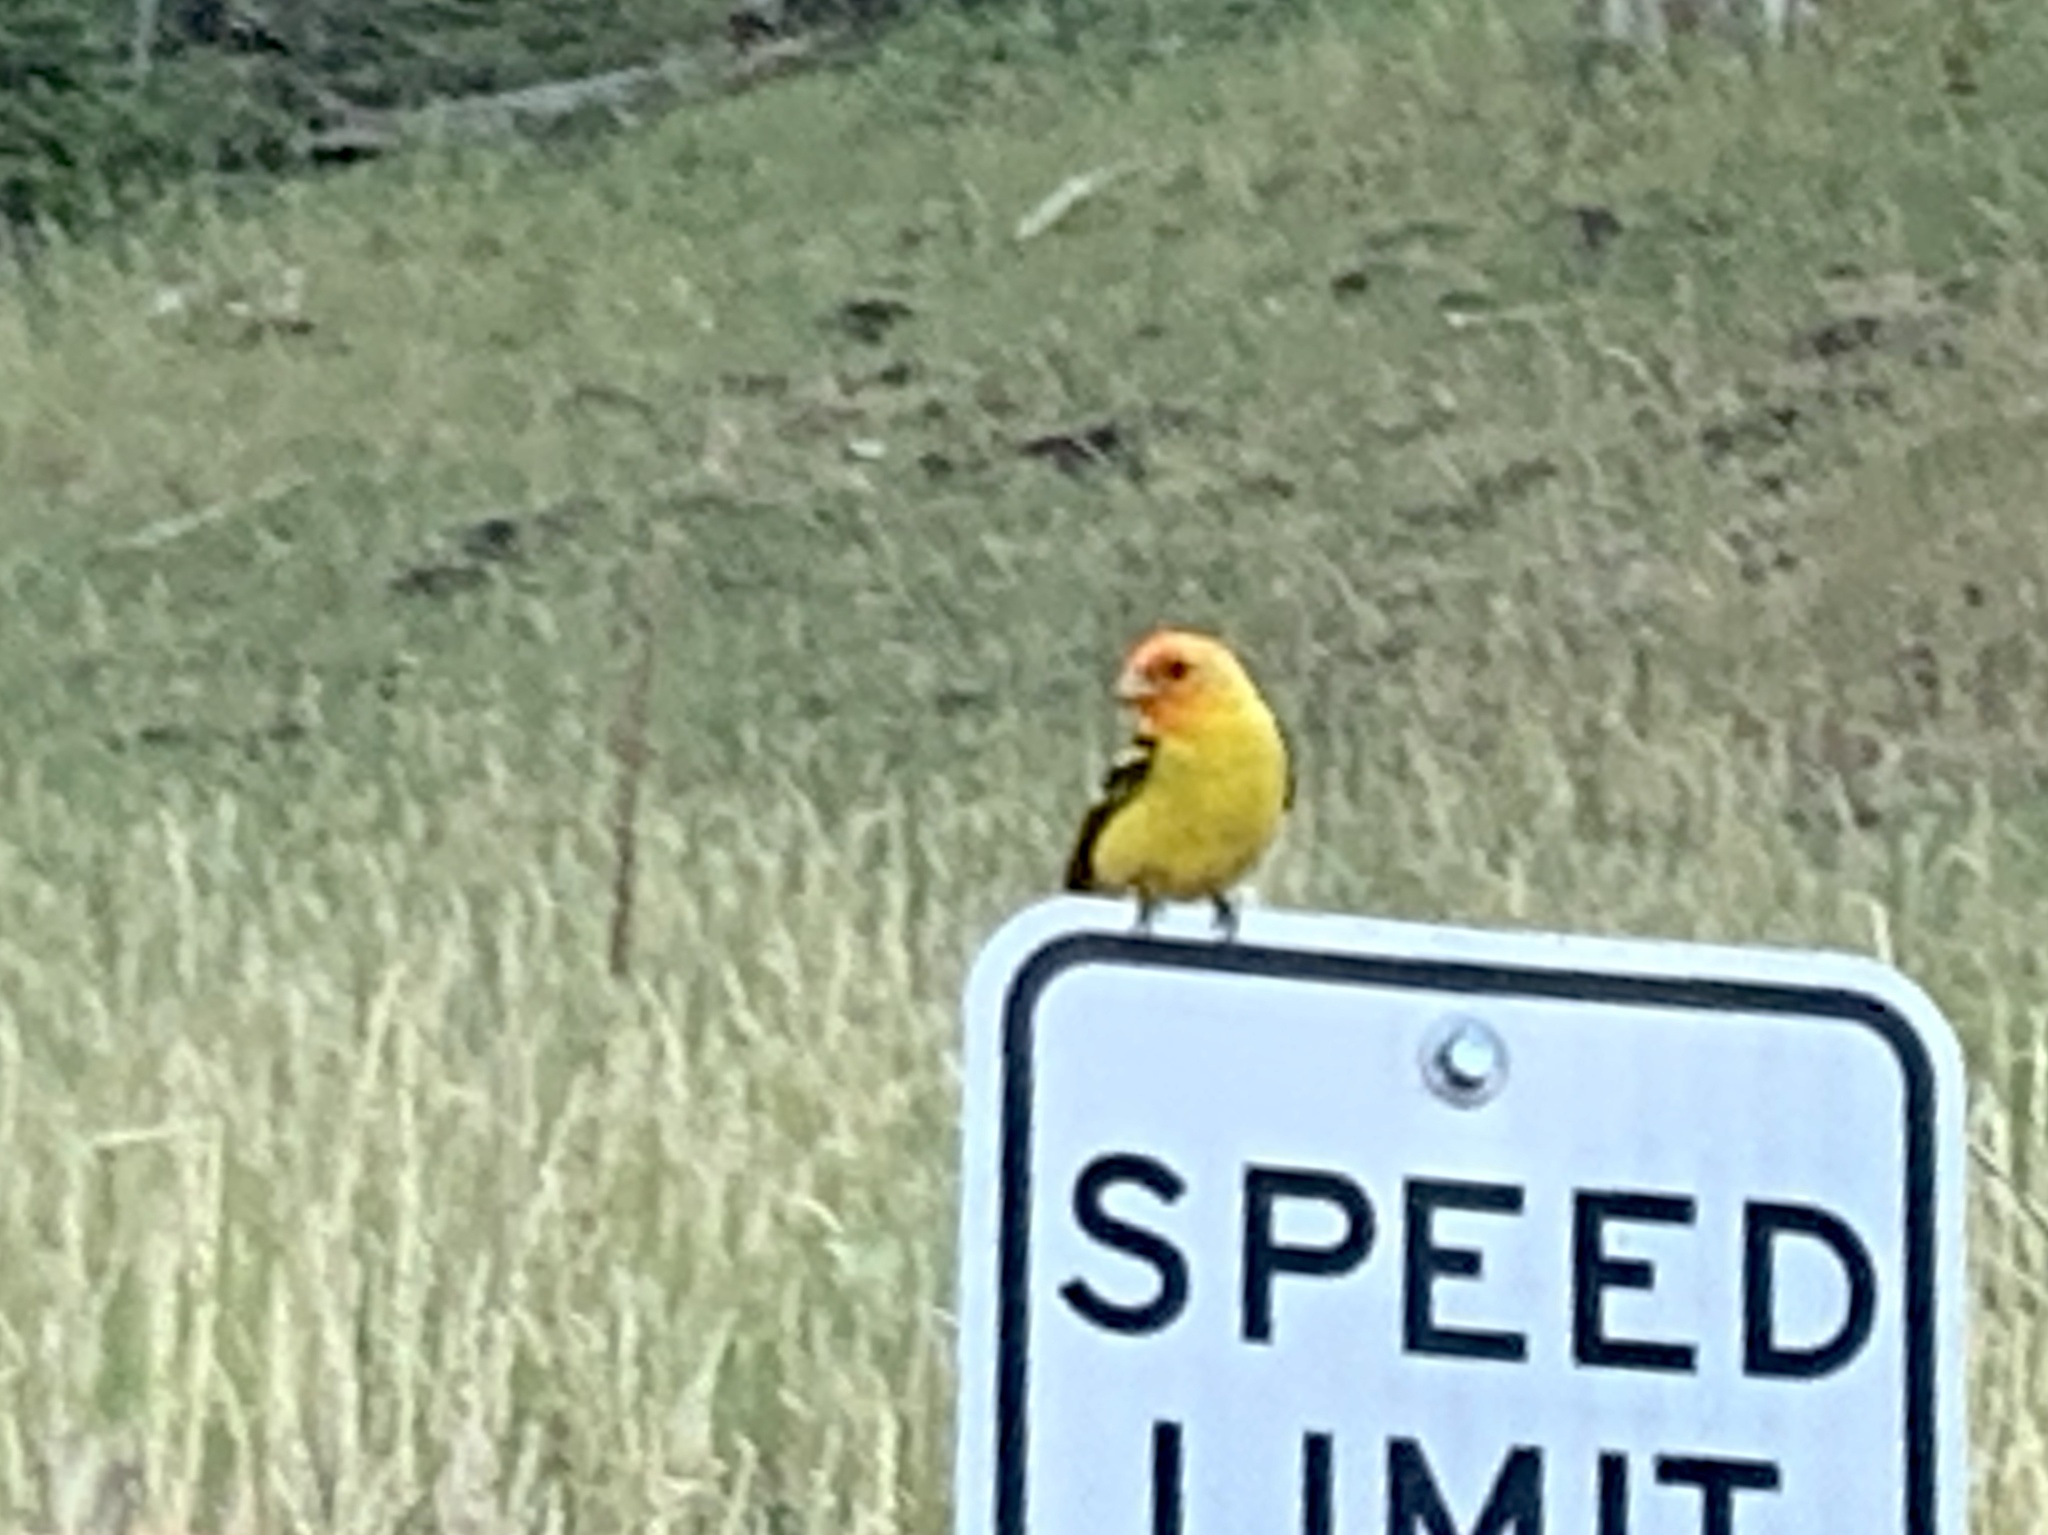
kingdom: Animalia
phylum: Chordata
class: Aves
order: Passeriformes
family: Cardinalidae
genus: Piranga
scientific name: Piranga ludoviciana
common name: Western tanager
